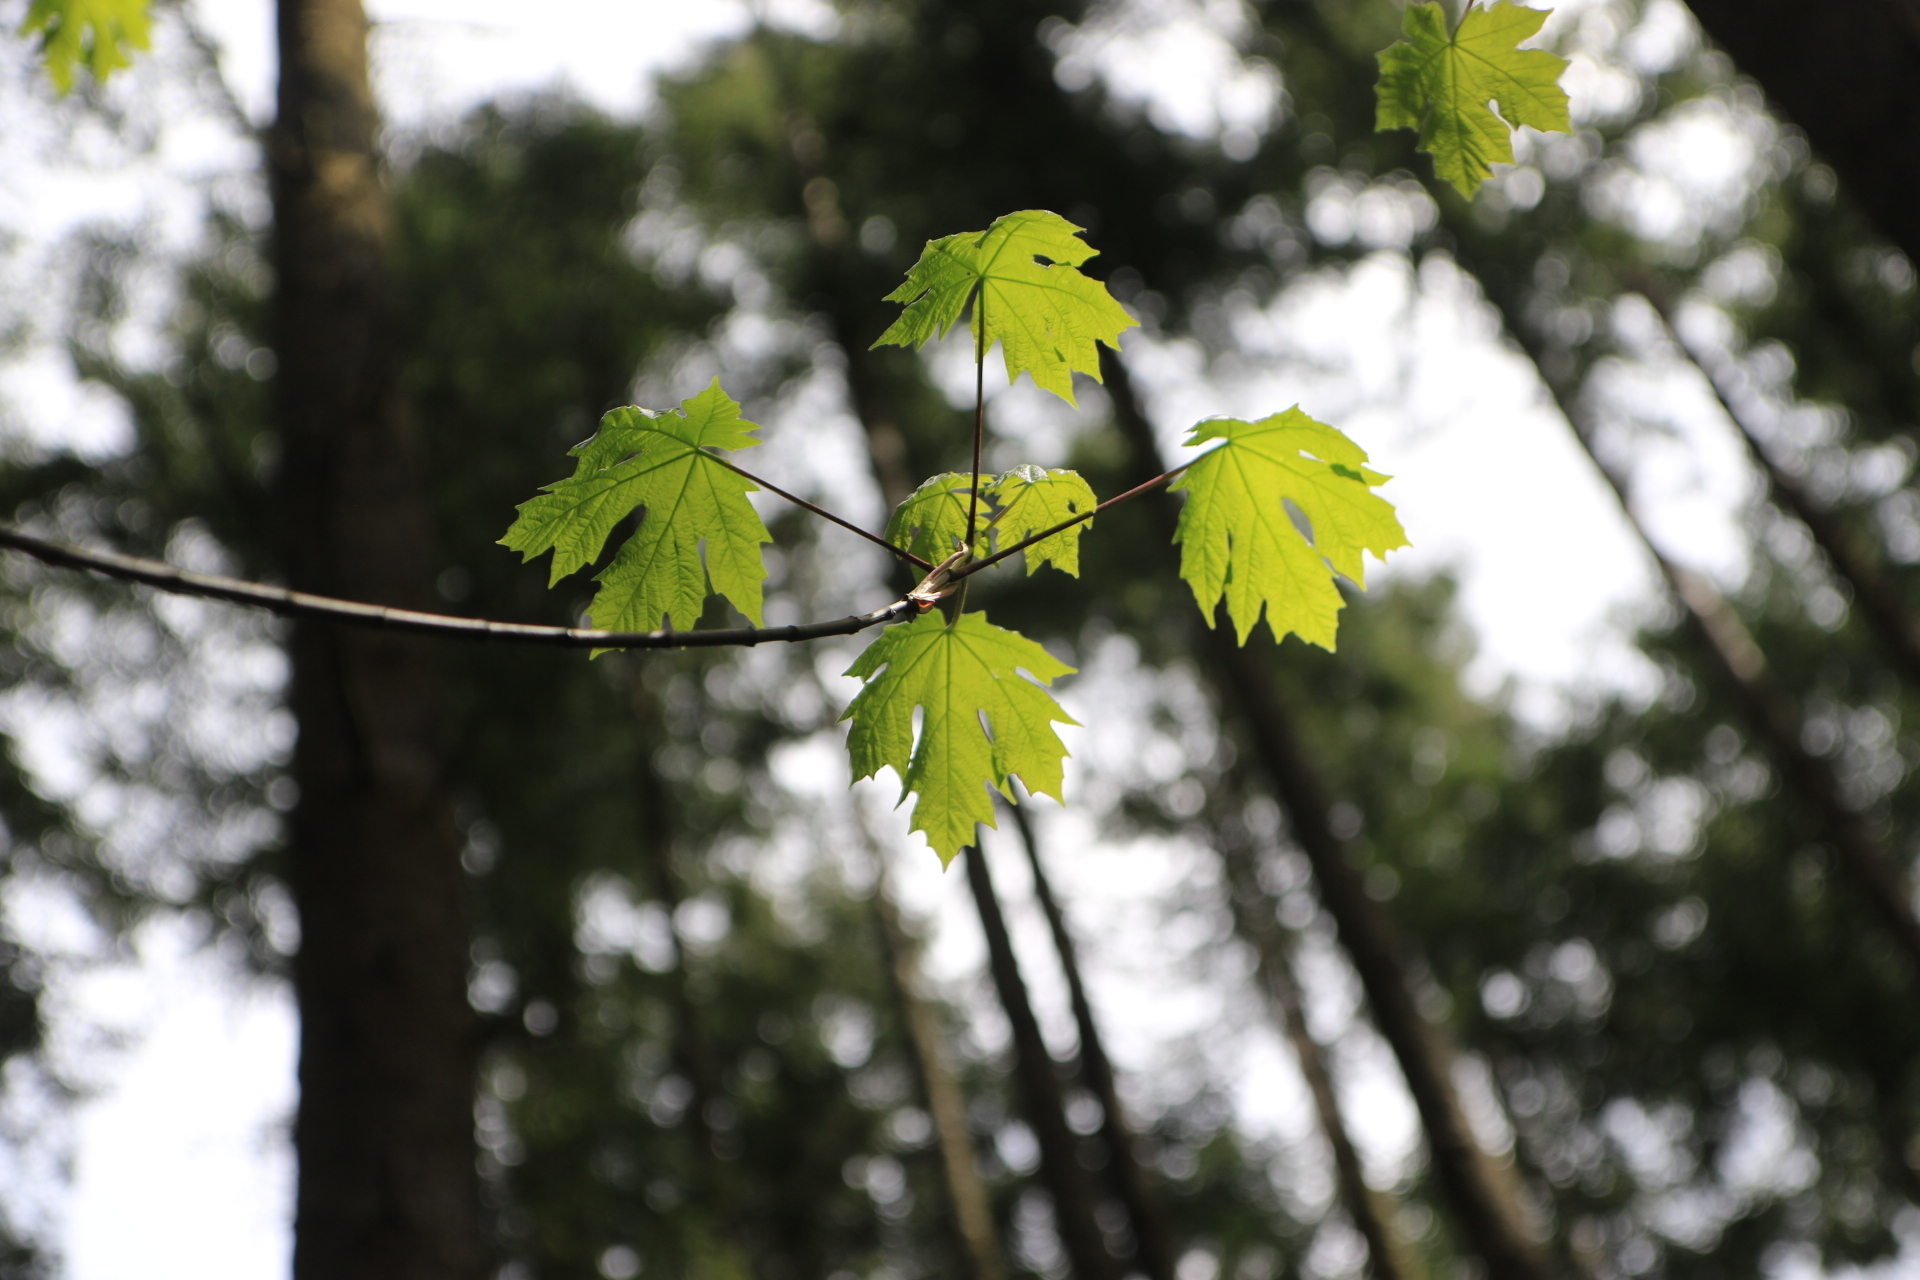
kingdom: Plantae
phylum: Tracheophyta
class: Magnoliopsida
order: Sapindales
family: Sapindaceae
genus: Acer
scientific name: Acer macrophyllum
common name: Oregon maple
